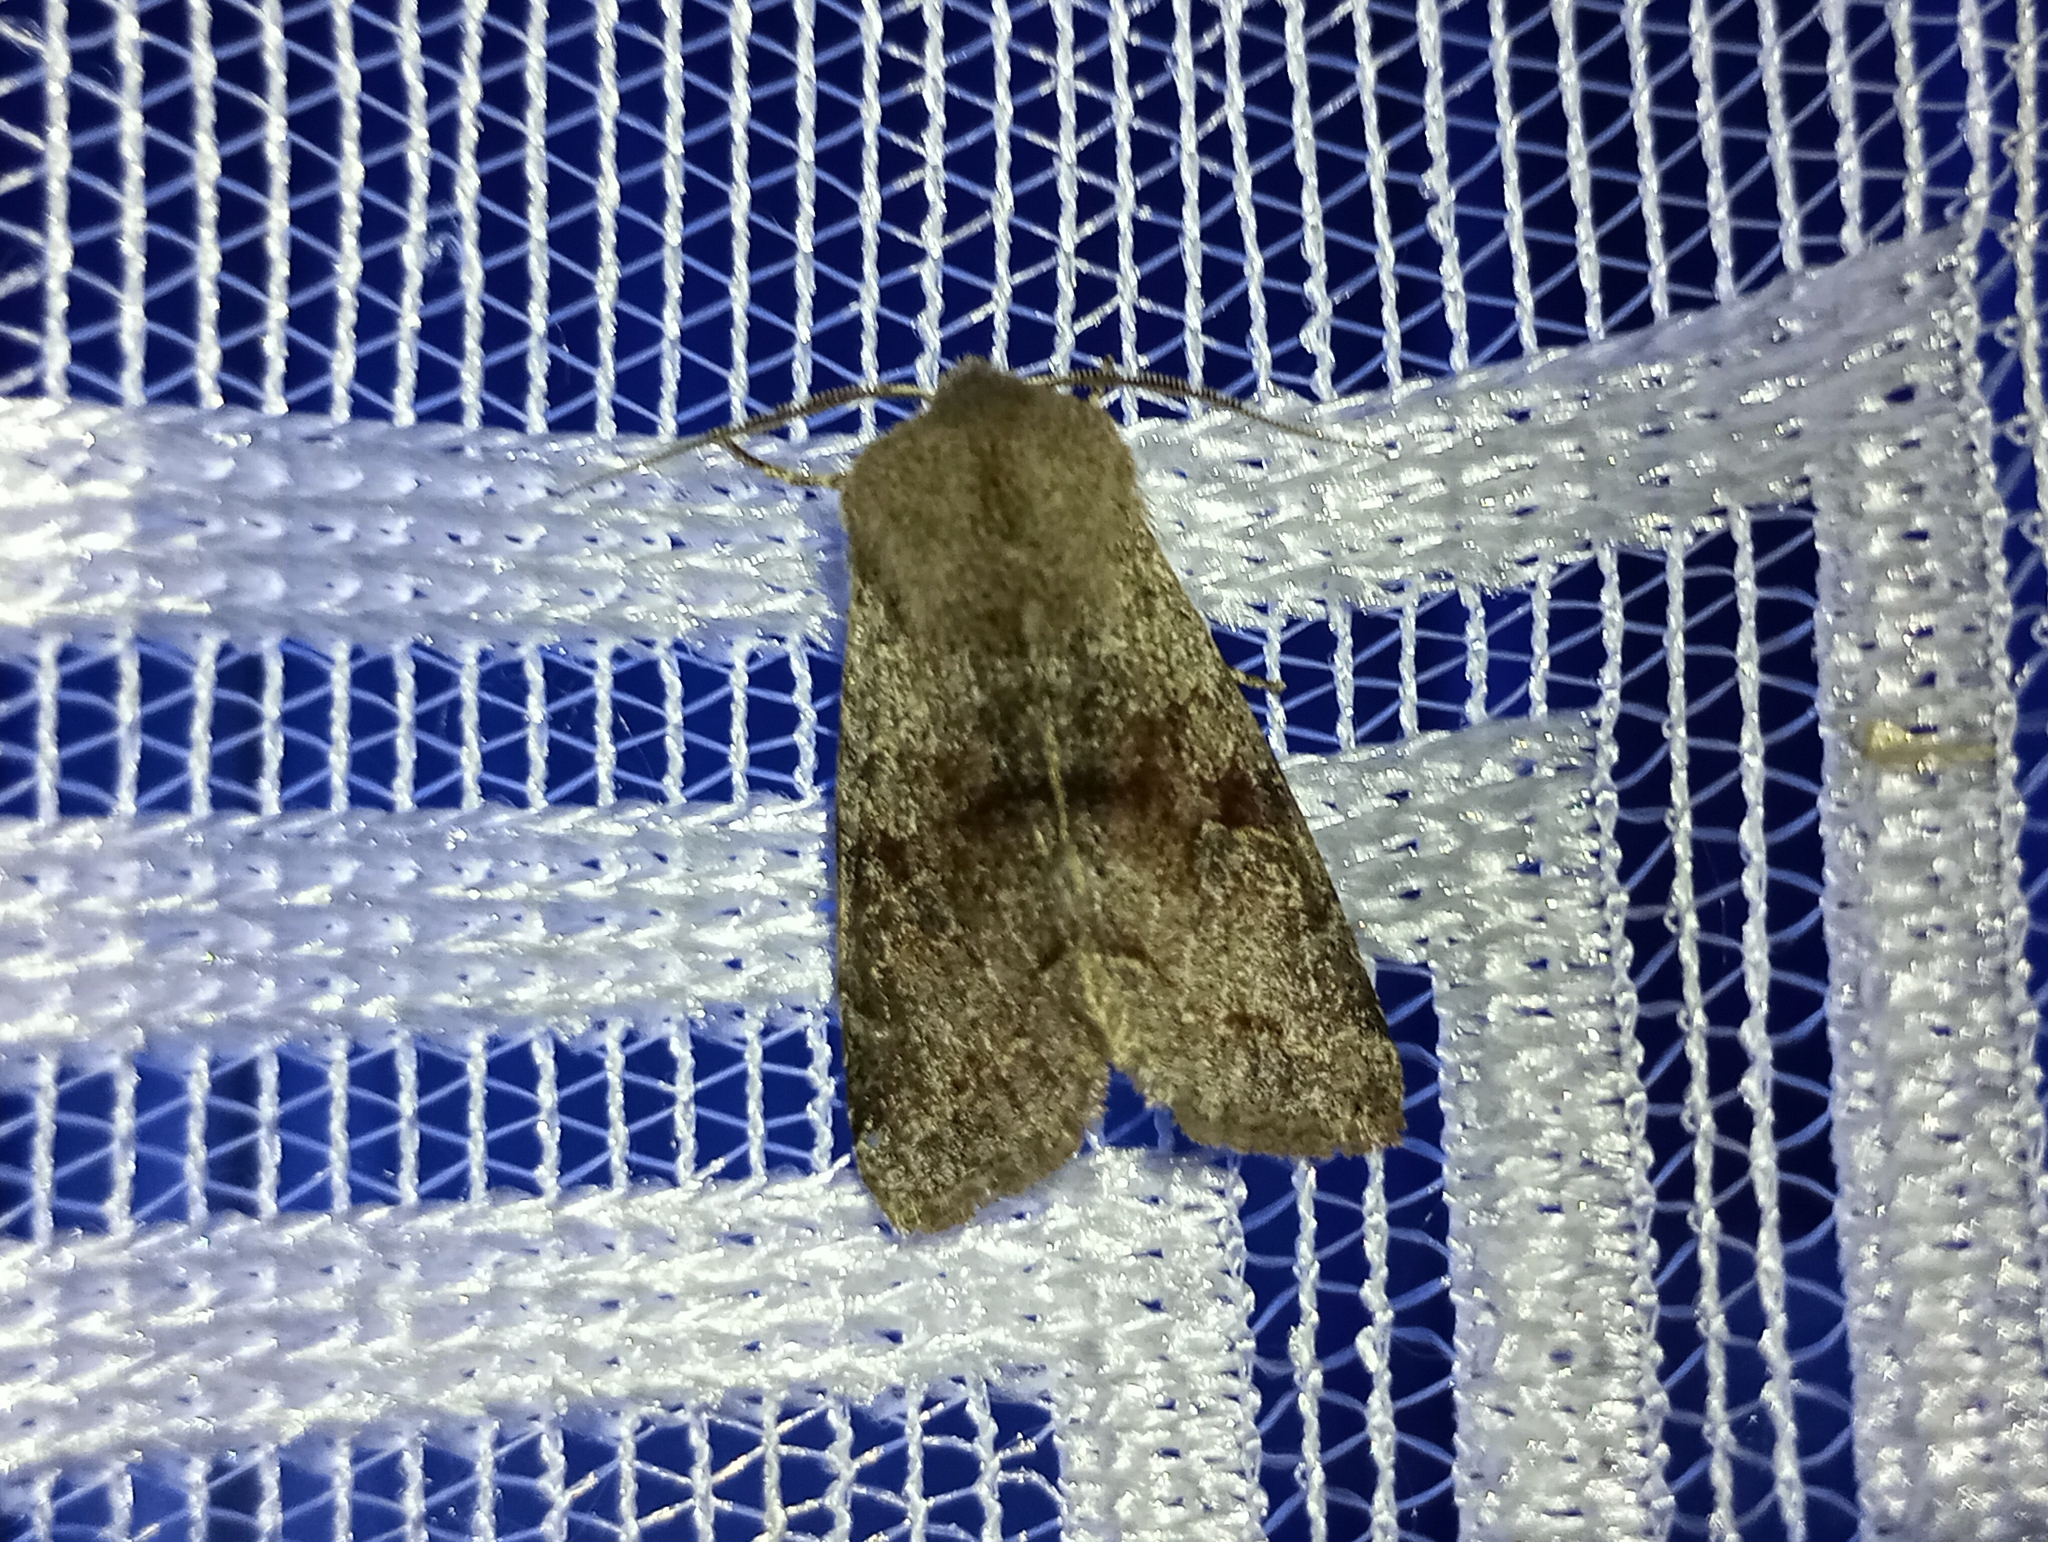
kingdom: Animalia
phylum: Arthropoda
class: Insecta
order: Lepidoptera
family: Noctuidae
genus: Orthosia
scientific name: Orthosia incerta
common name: Clouded drab
